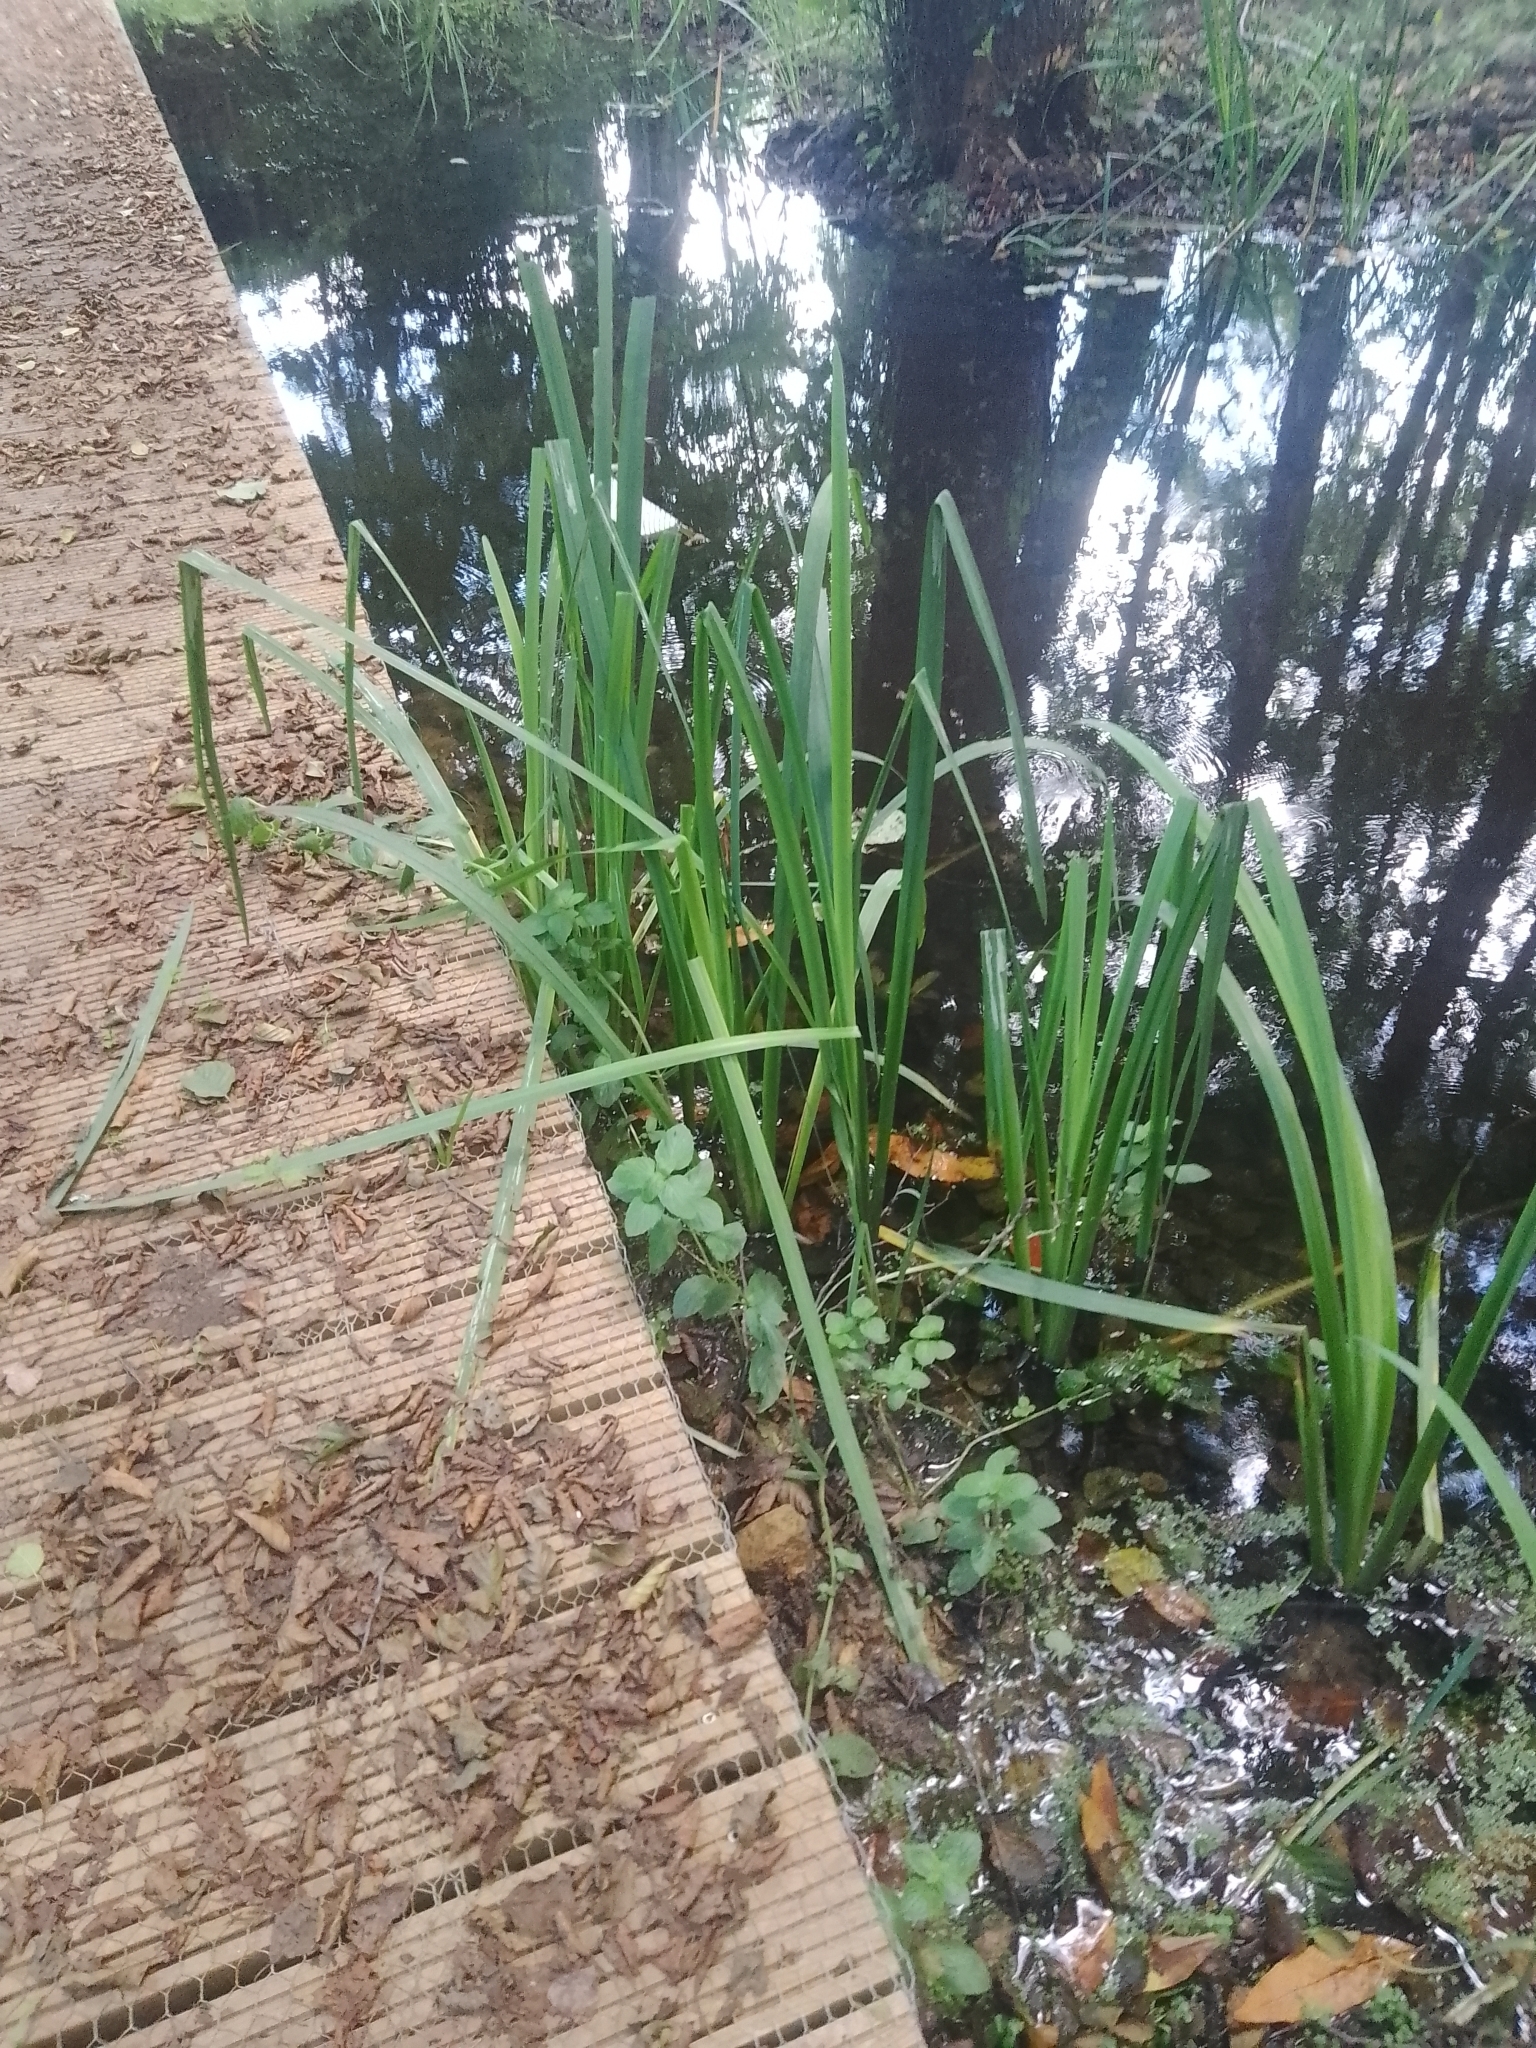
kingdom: Plantae
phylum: Tracheophyta
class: Liliopsida
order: Asparagales
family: Iridaceae
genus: Iris
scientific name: Iris pseudacorus
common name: Yellow flag
